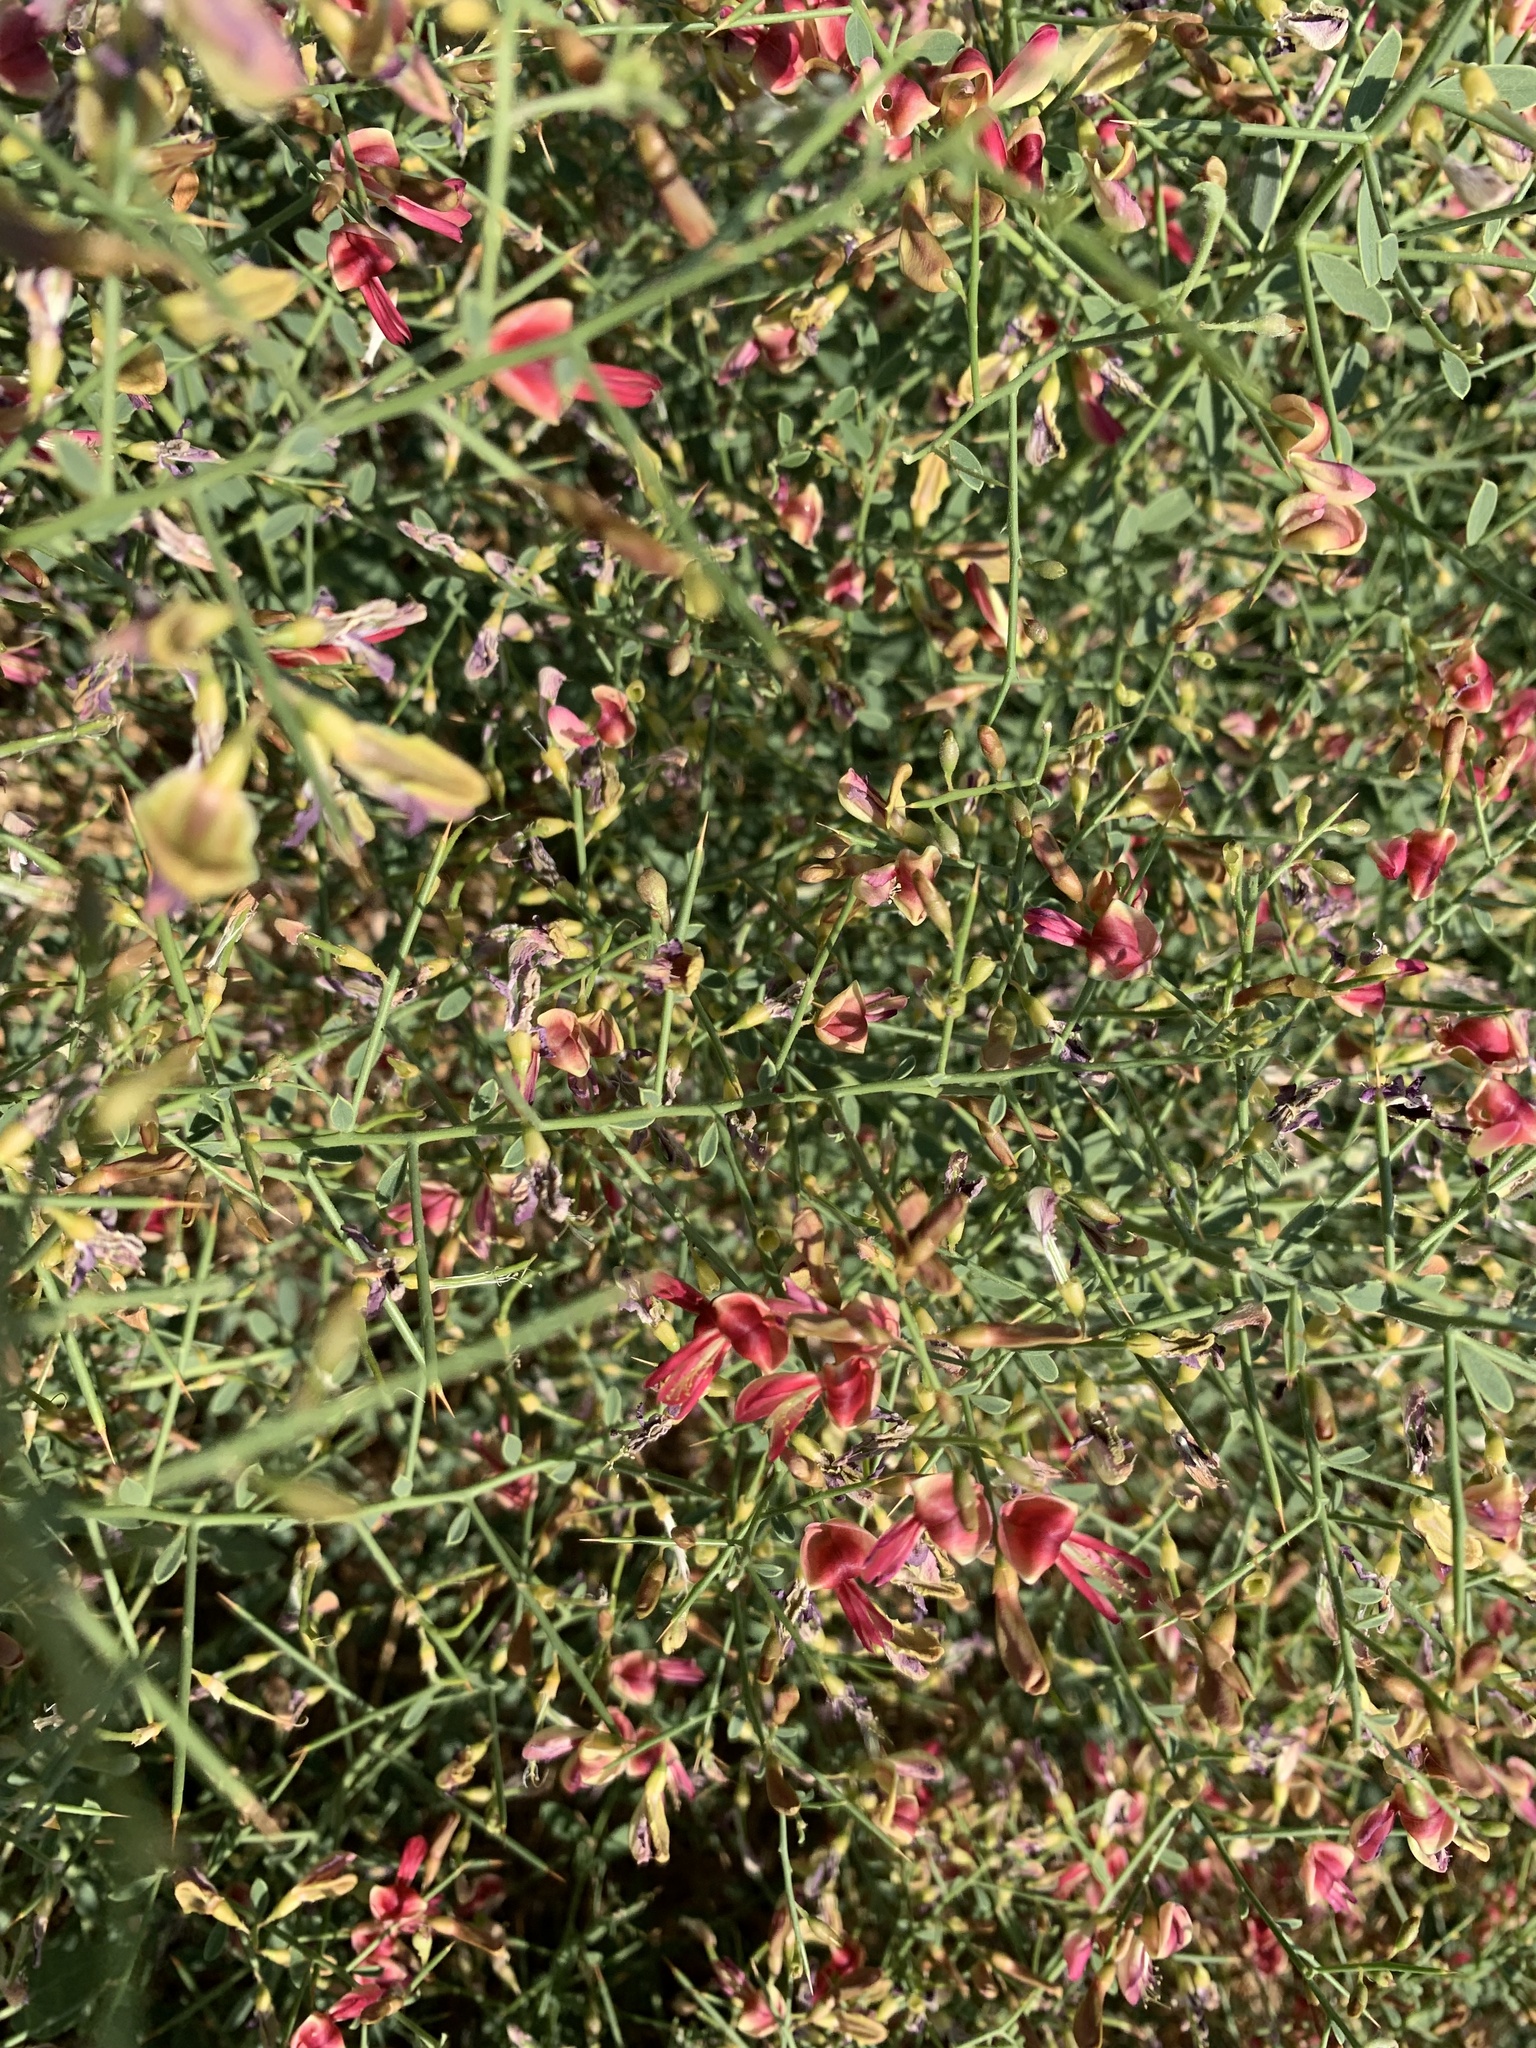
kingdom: Plantae
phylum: Tracheophyta
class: Magnoliopsida
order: Fabales
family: Fabaceae
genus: Alhagi
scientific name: Alhagi graecorum
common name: Persian mannaplant
